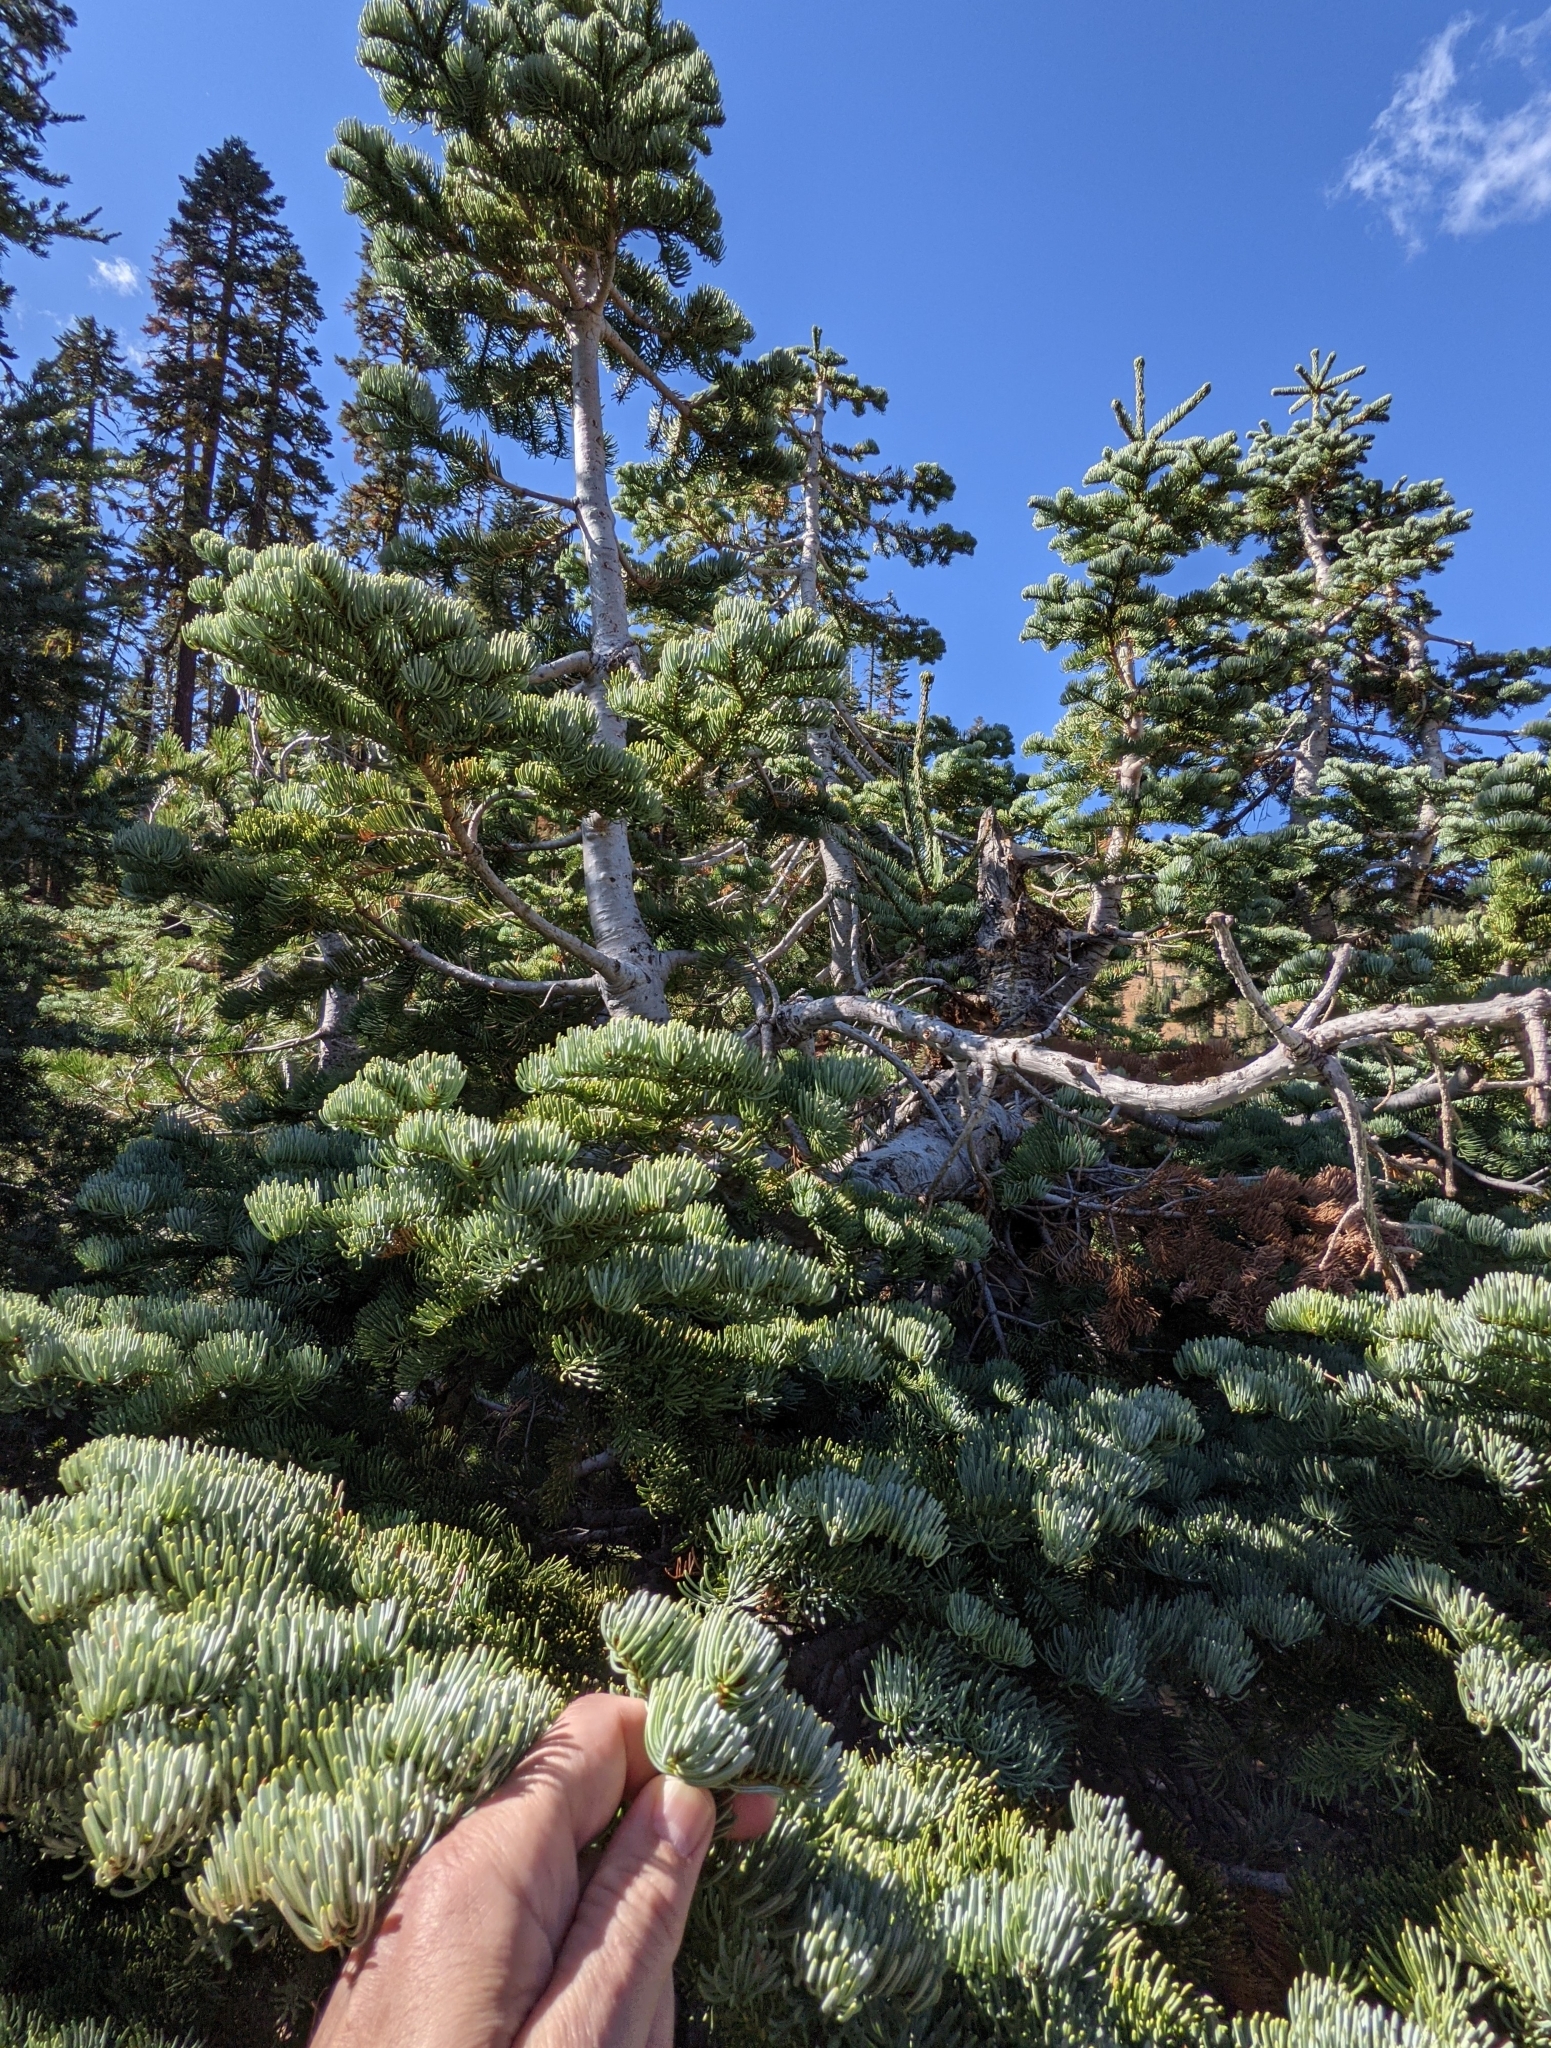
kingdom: Plantae
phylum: Tracheophyta
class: Pinopsida
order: Pinales
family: Pinaceae
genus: Abies
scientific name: Abies magnifica bis
